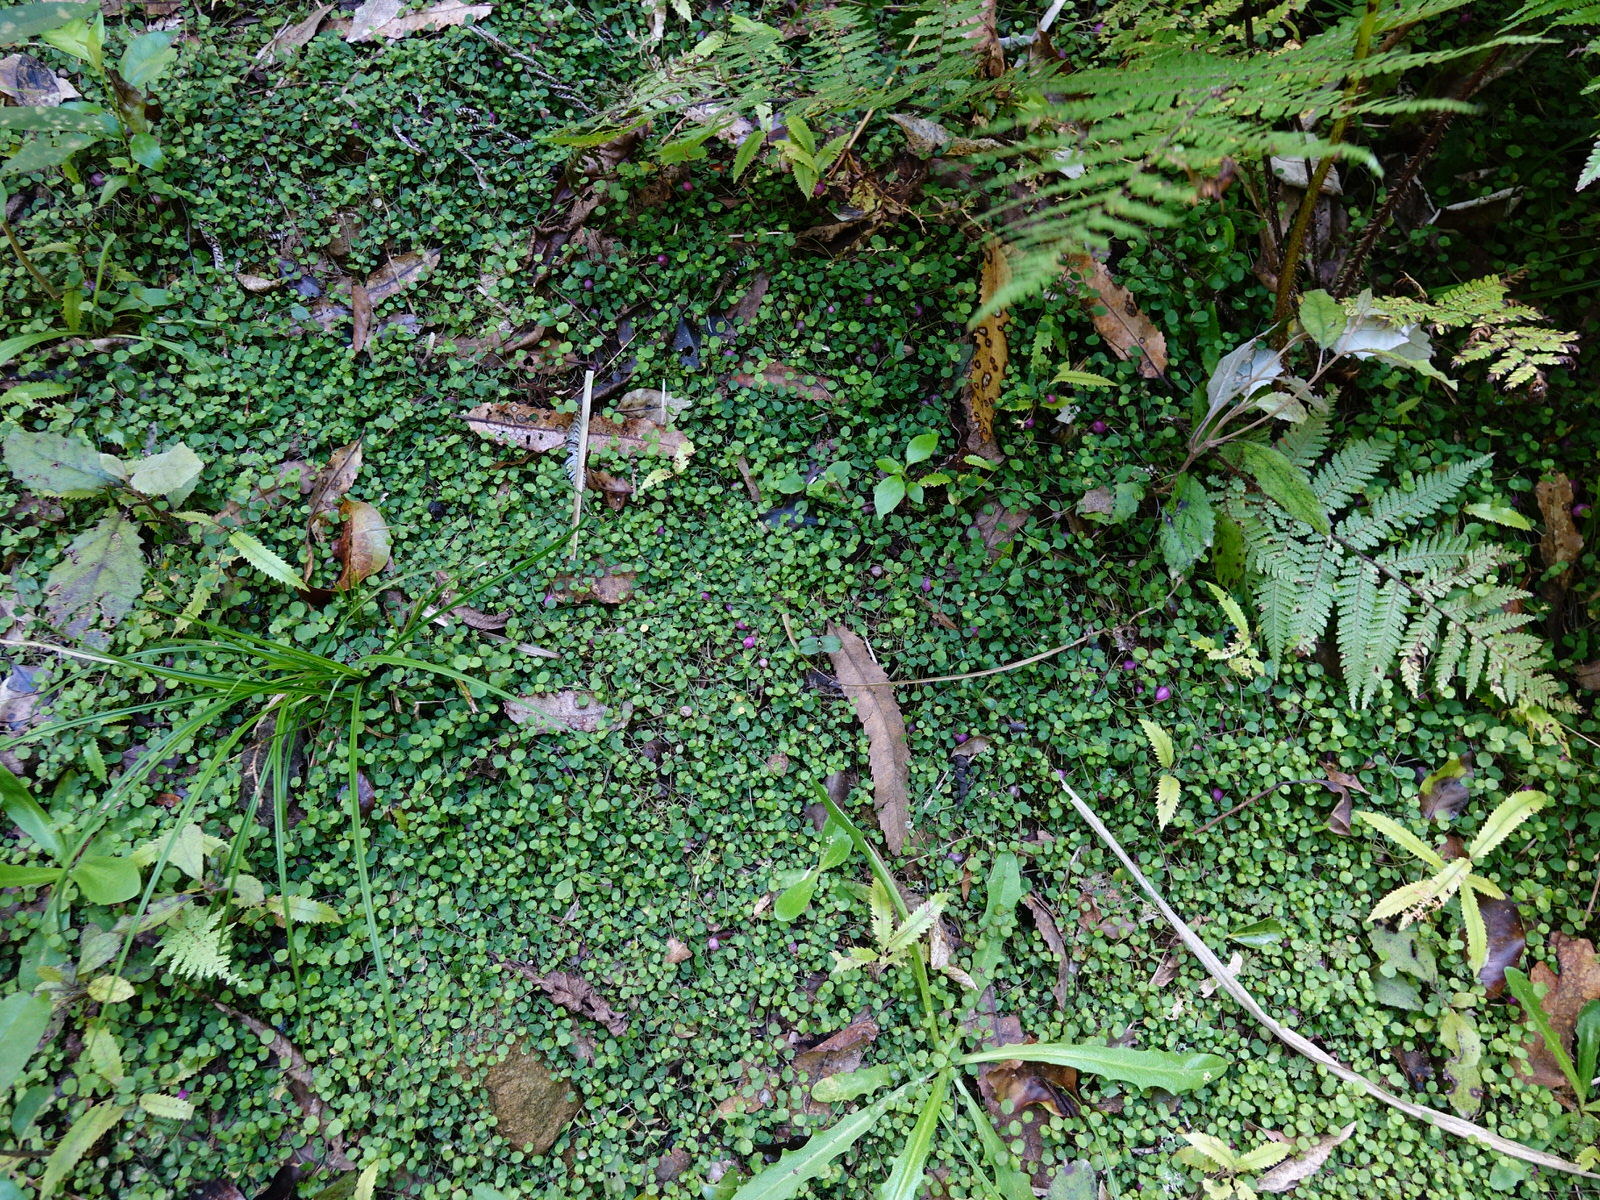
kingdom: Plantae
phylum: Tracheophyta
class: Magnoliopsida
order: Asterales
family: Campanulaceae
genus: Lobelia
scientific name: Lobelia angulata
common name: Lawn lobelia
